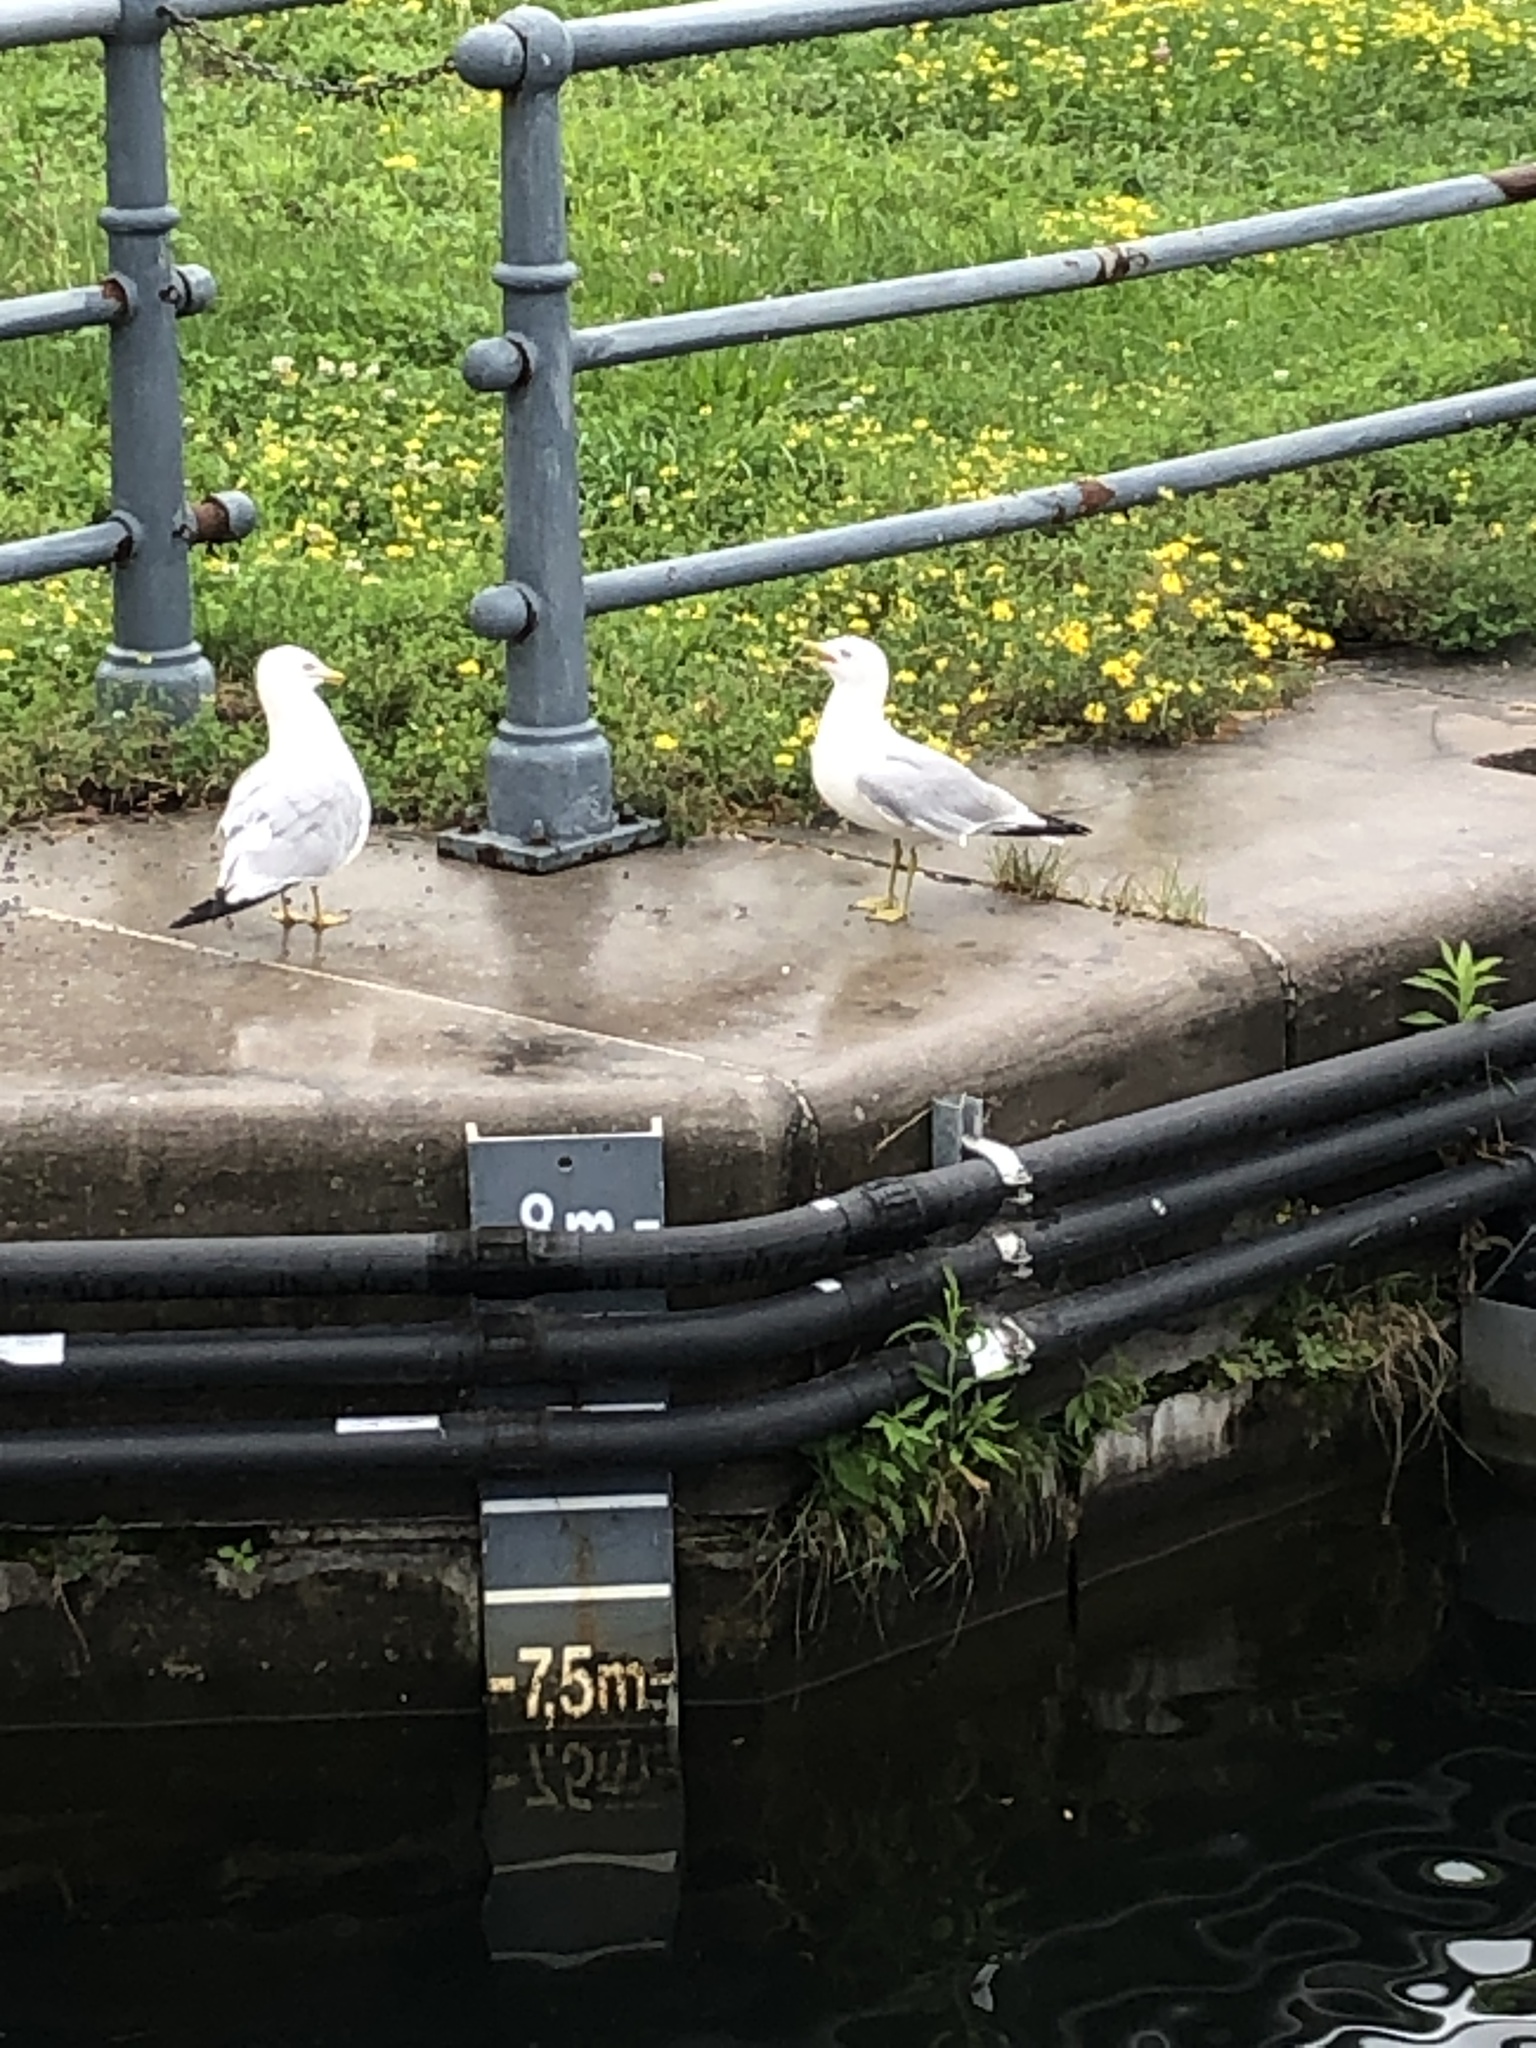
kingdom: Animalia
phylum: Chordata
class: Aves
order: Charadriiformes
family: Laridae
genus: Larus
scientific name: Larus delawarensis
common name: Ring-billed gull
